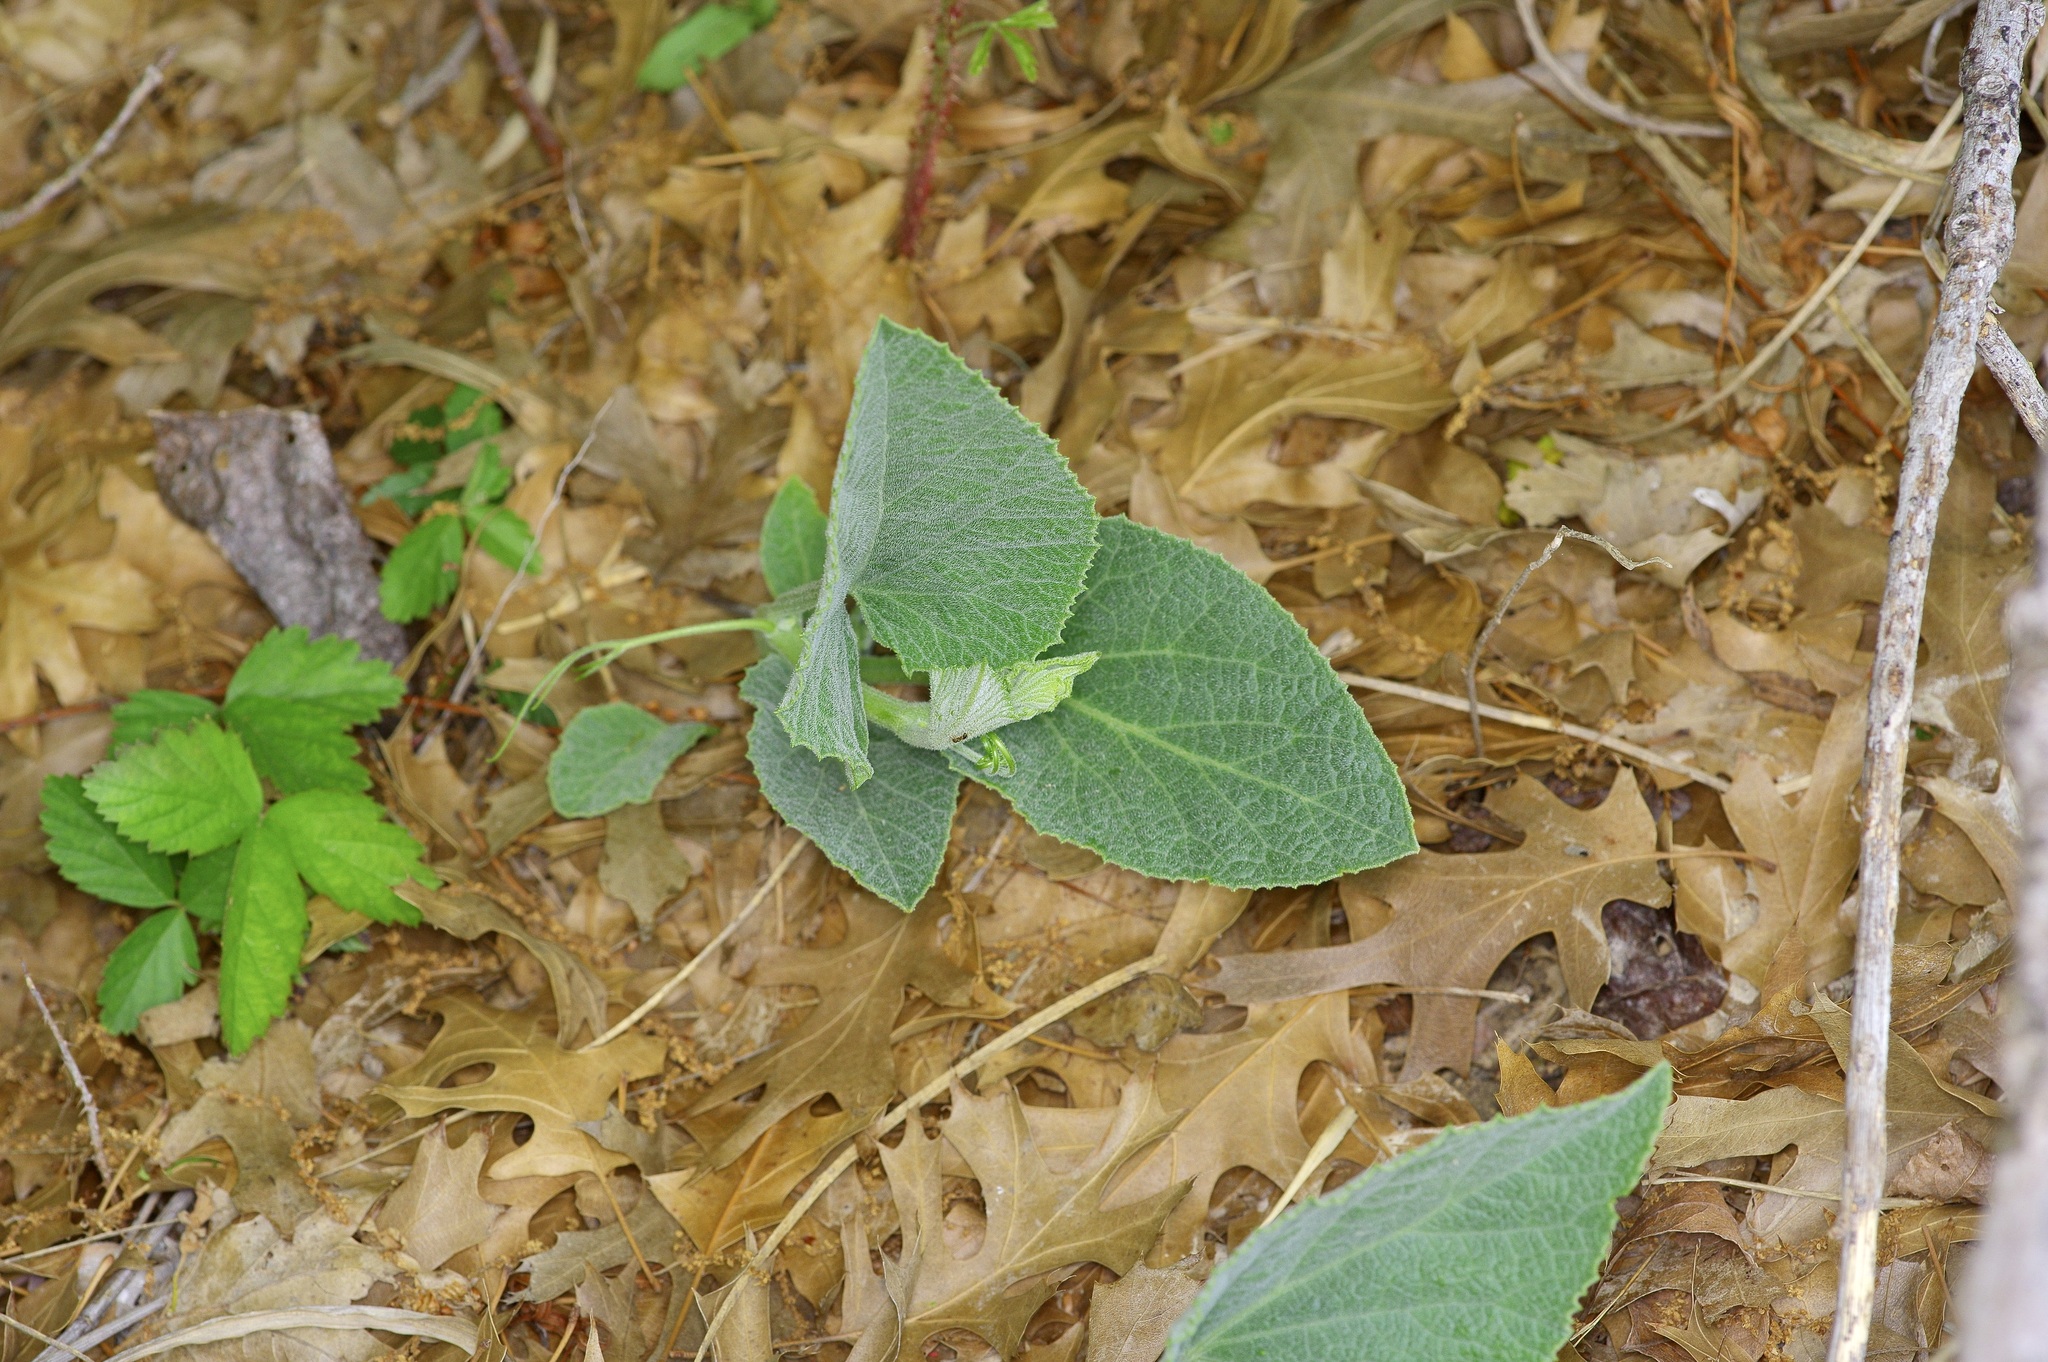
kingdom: Plantae
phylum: Tracheophyta
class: Magnoliopsida
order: Cucurbitales
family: Cucurbitaceae
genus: Cucurbita
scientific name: Cucurbita foetidissima
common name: Buffalo gourd
